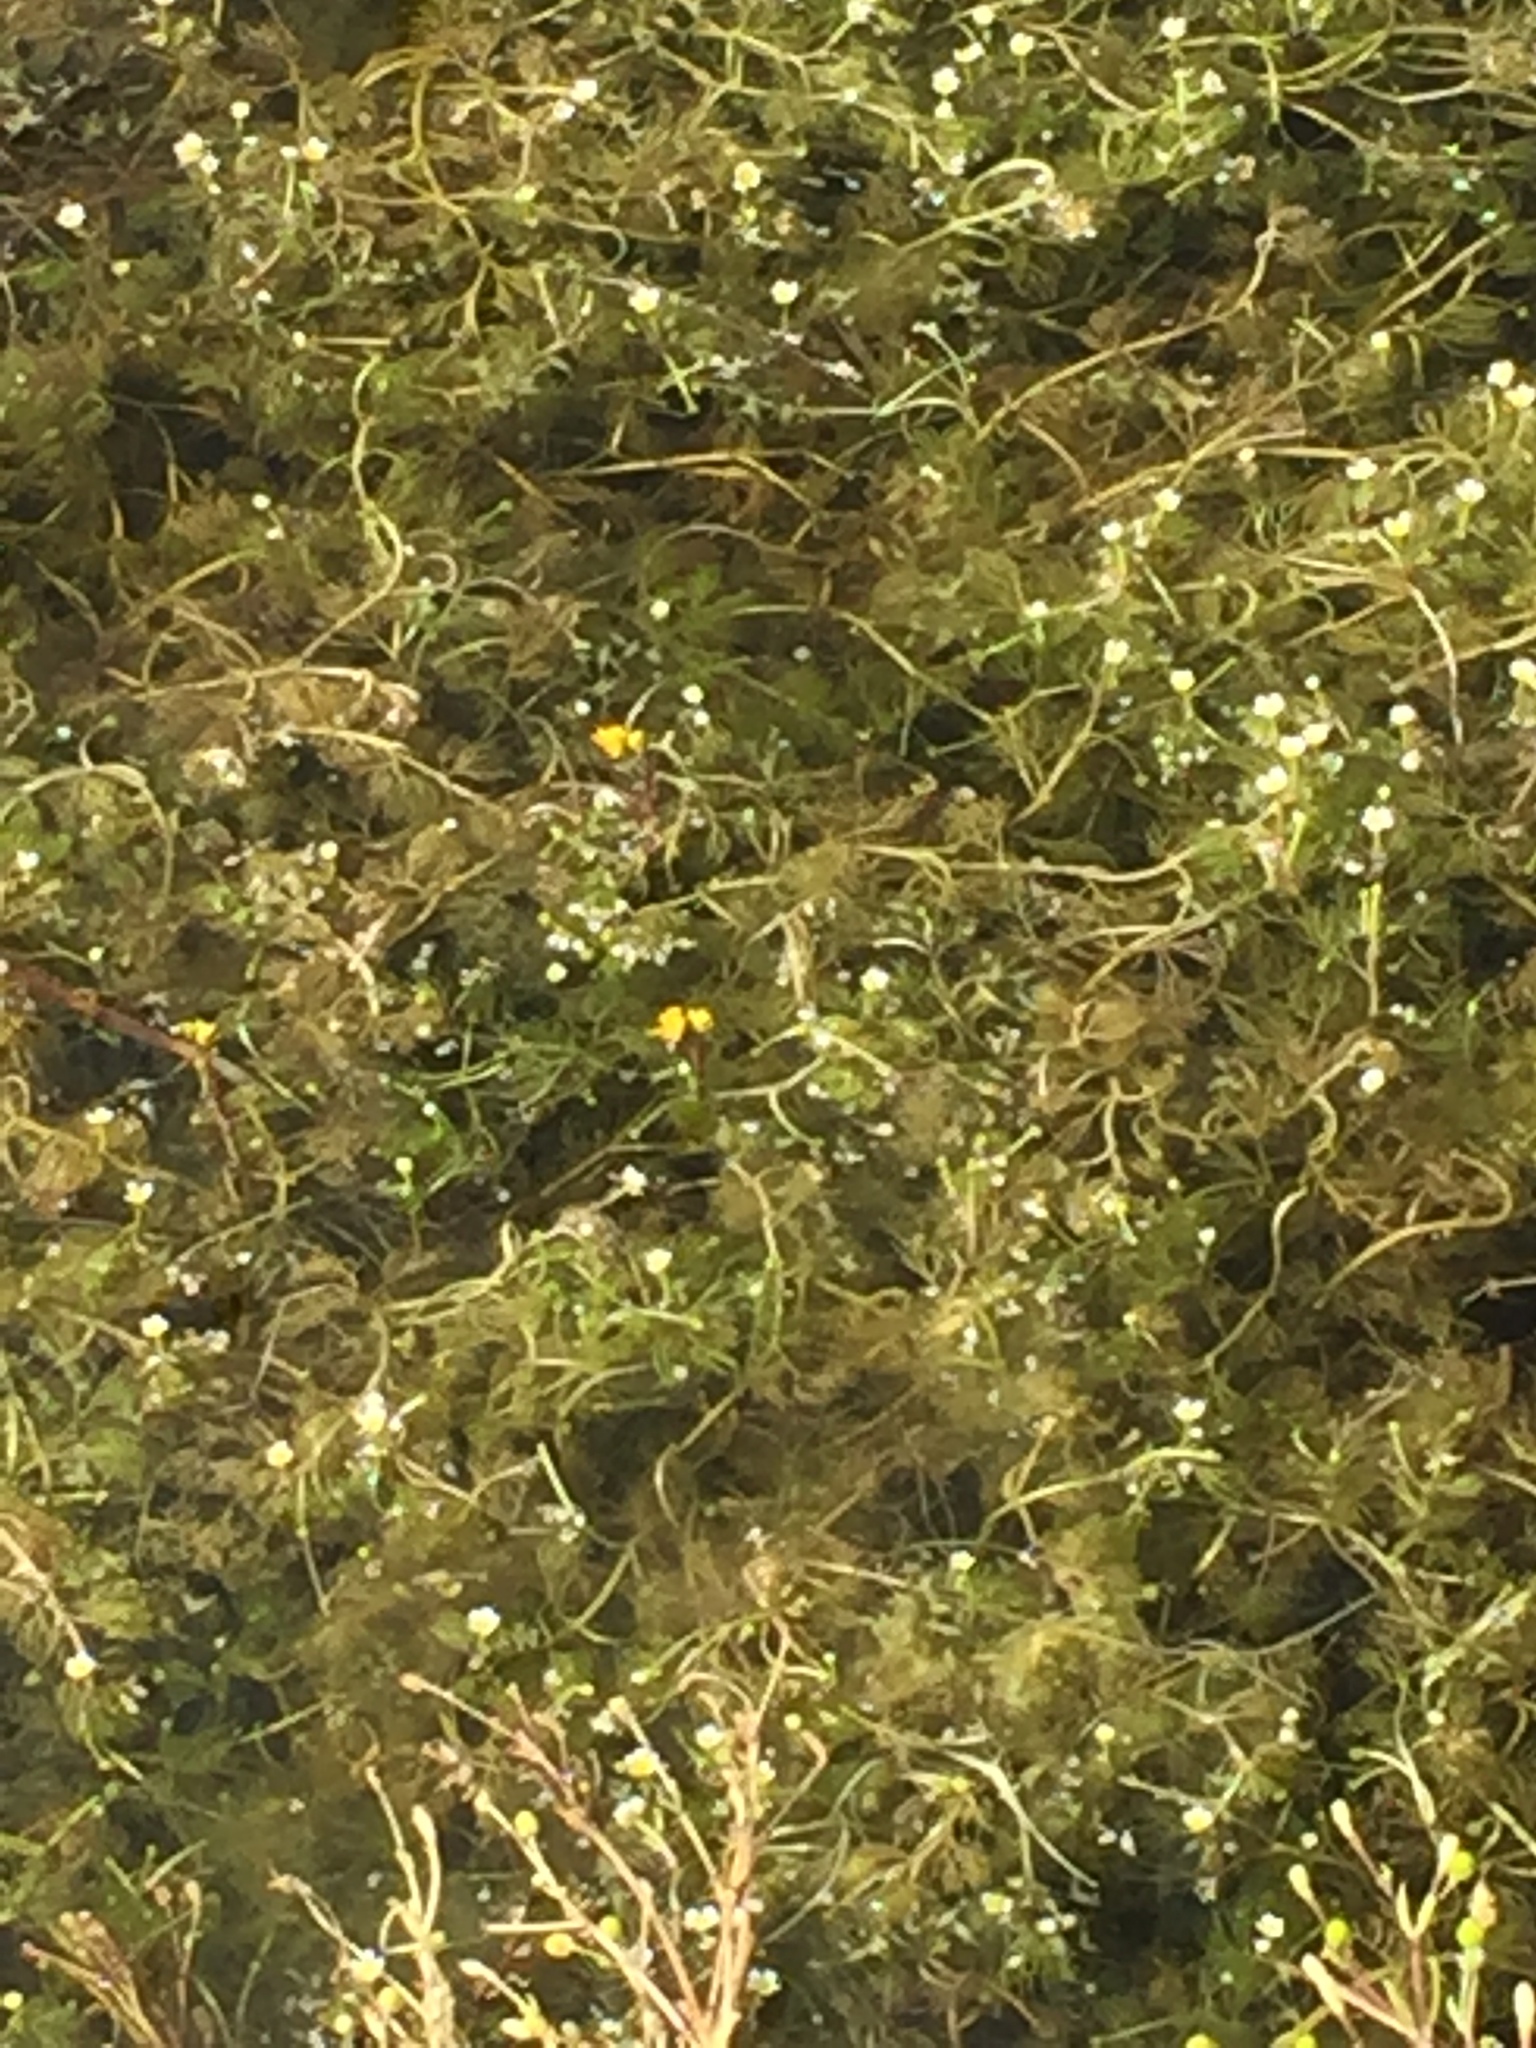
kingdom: Plantae
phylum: Tracheophyta
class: Magnoliopsida
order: Lamiales
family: Lentibulariaceae
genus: Utricularia
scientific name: Utricularia
